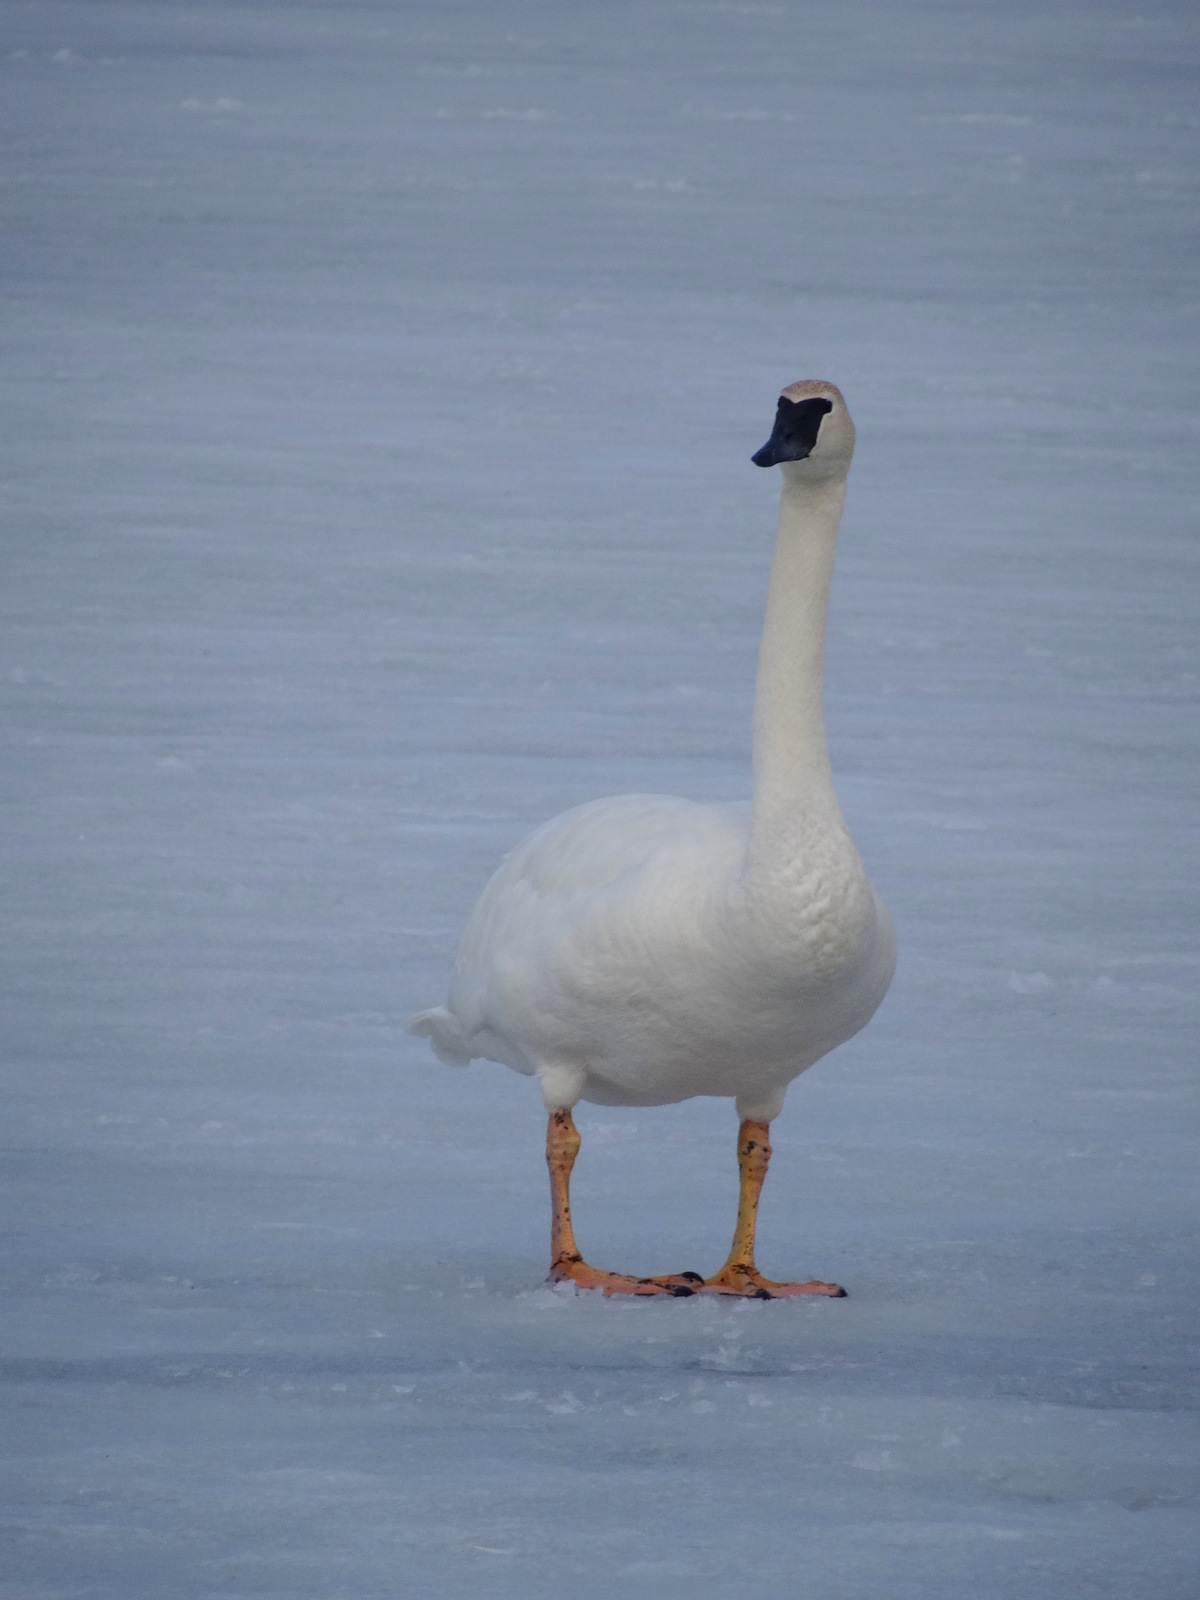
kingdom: Animalia
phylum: Chordata
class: Aves
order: Anseriformes
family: Anatidae
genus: Cygnus
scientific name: Cygnus buccinator
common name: Trumpeter swan
